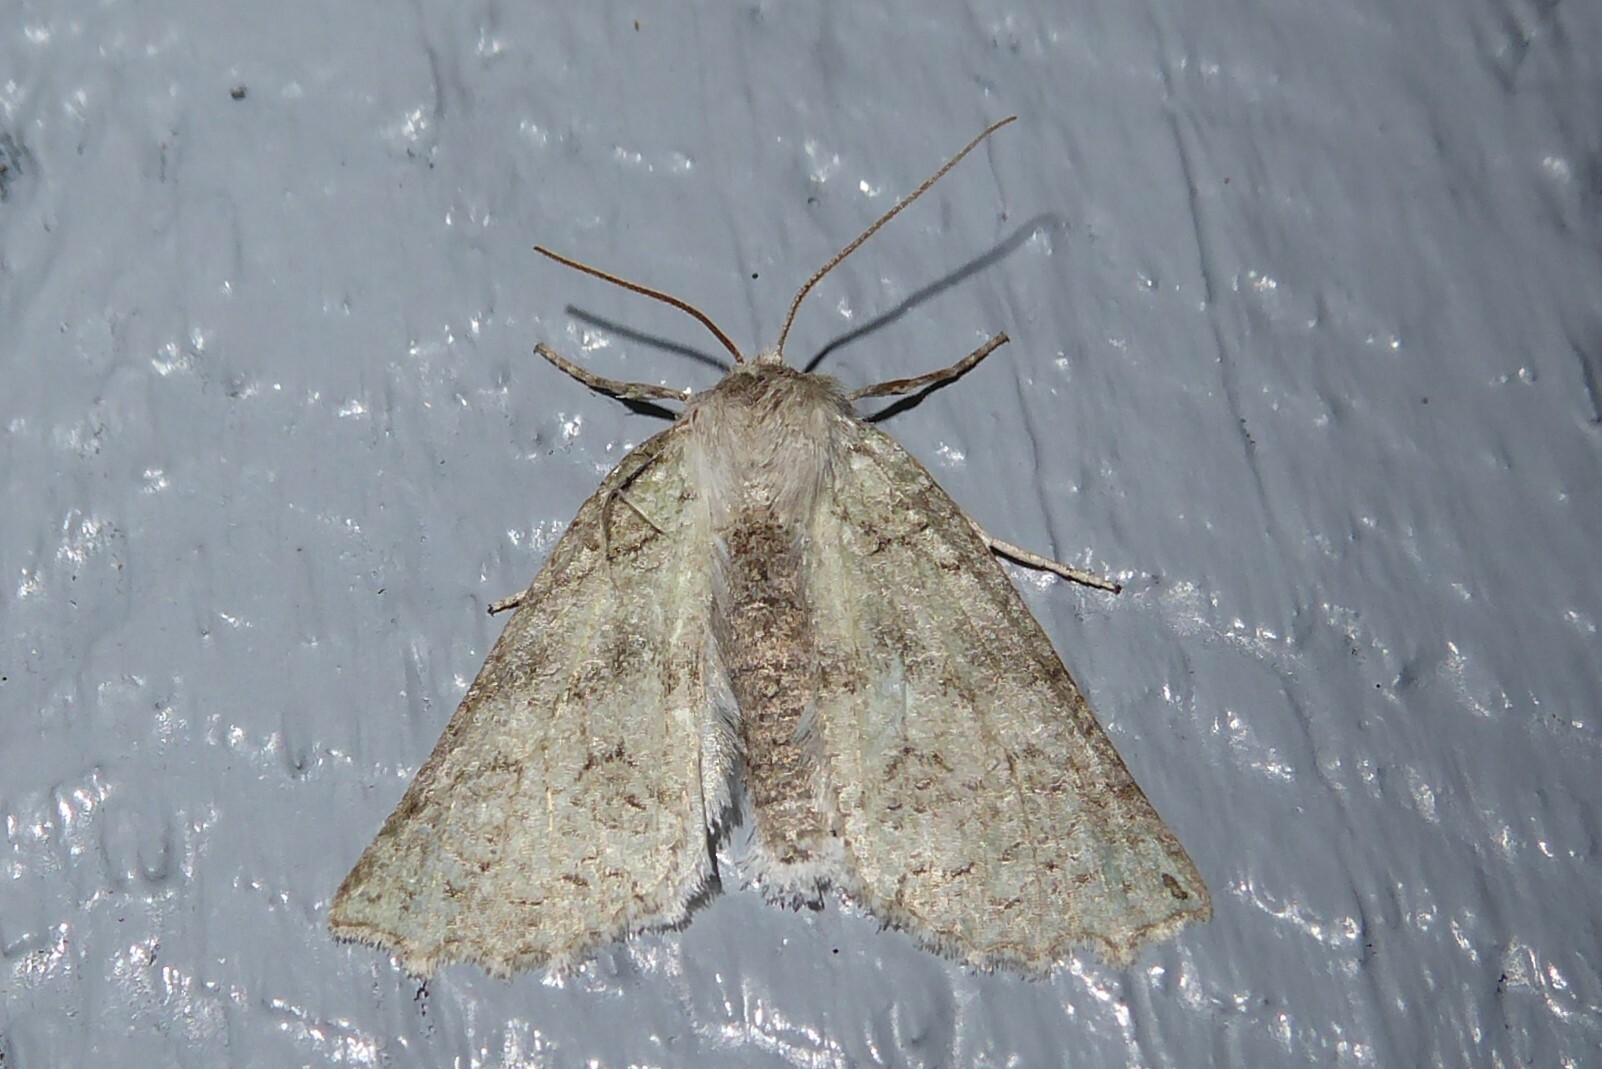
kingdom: Animalia
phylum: Arthropoda
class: Insecta
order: Lepidoptera
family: Geometridae
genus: Declana
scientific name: Declana floccosa
